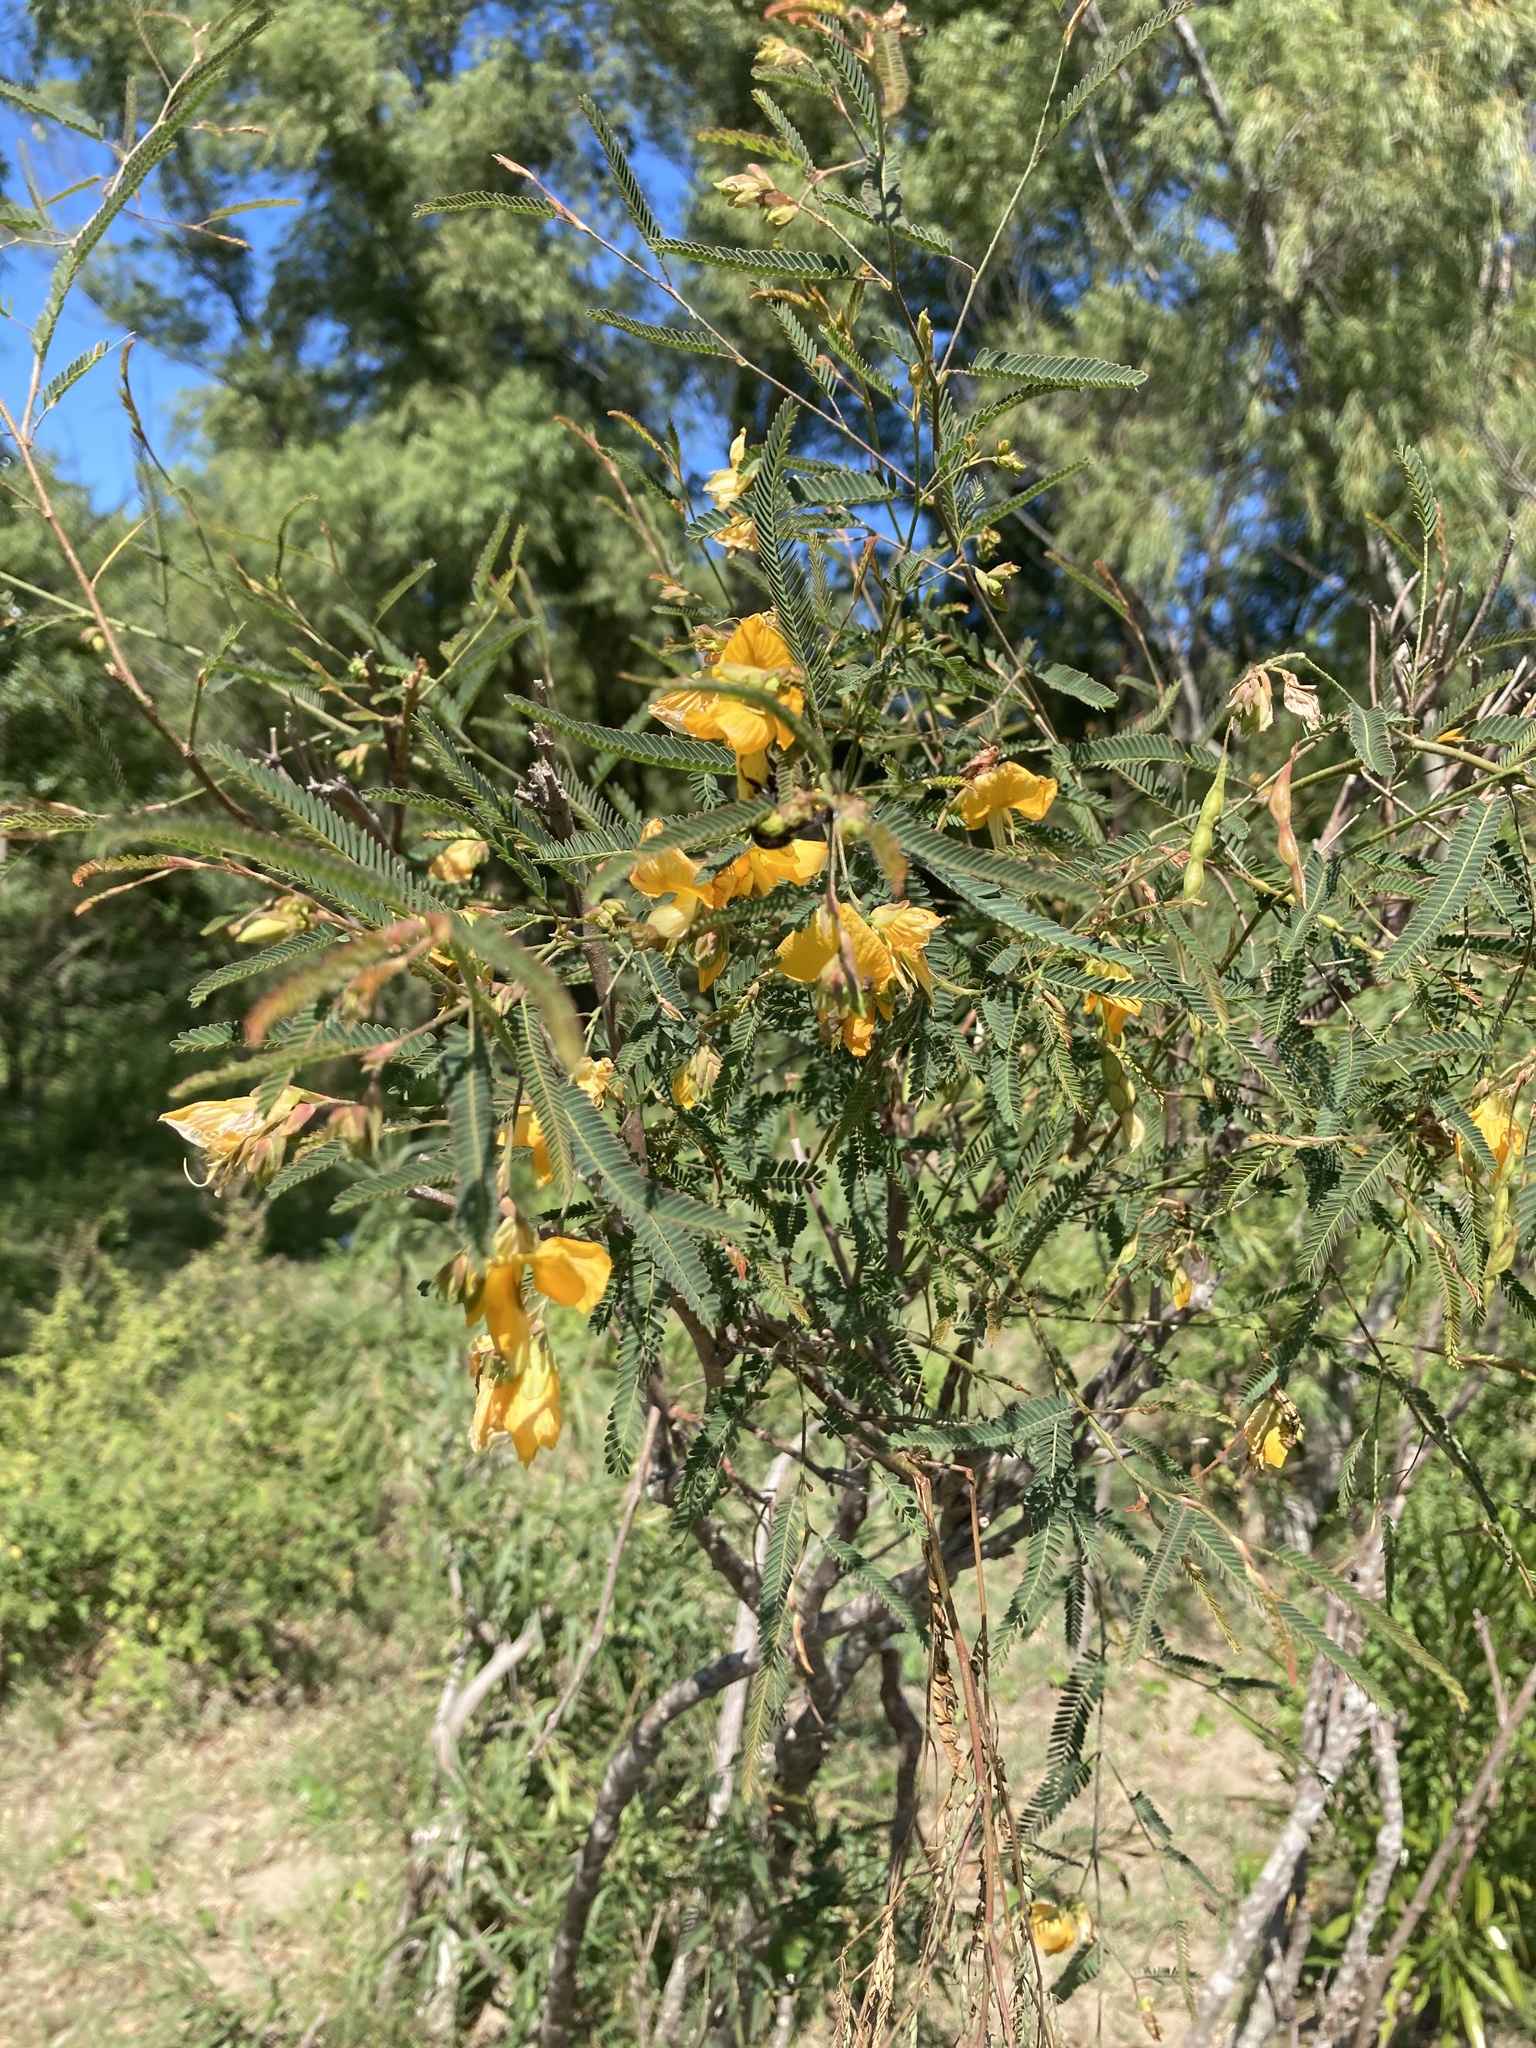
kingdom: Plantae
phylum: Tracheophyta
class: Magnoliopsida
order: Fabales
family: Fabaceae
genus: Aeschynomene
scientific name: Aeschynomene montevidensis
